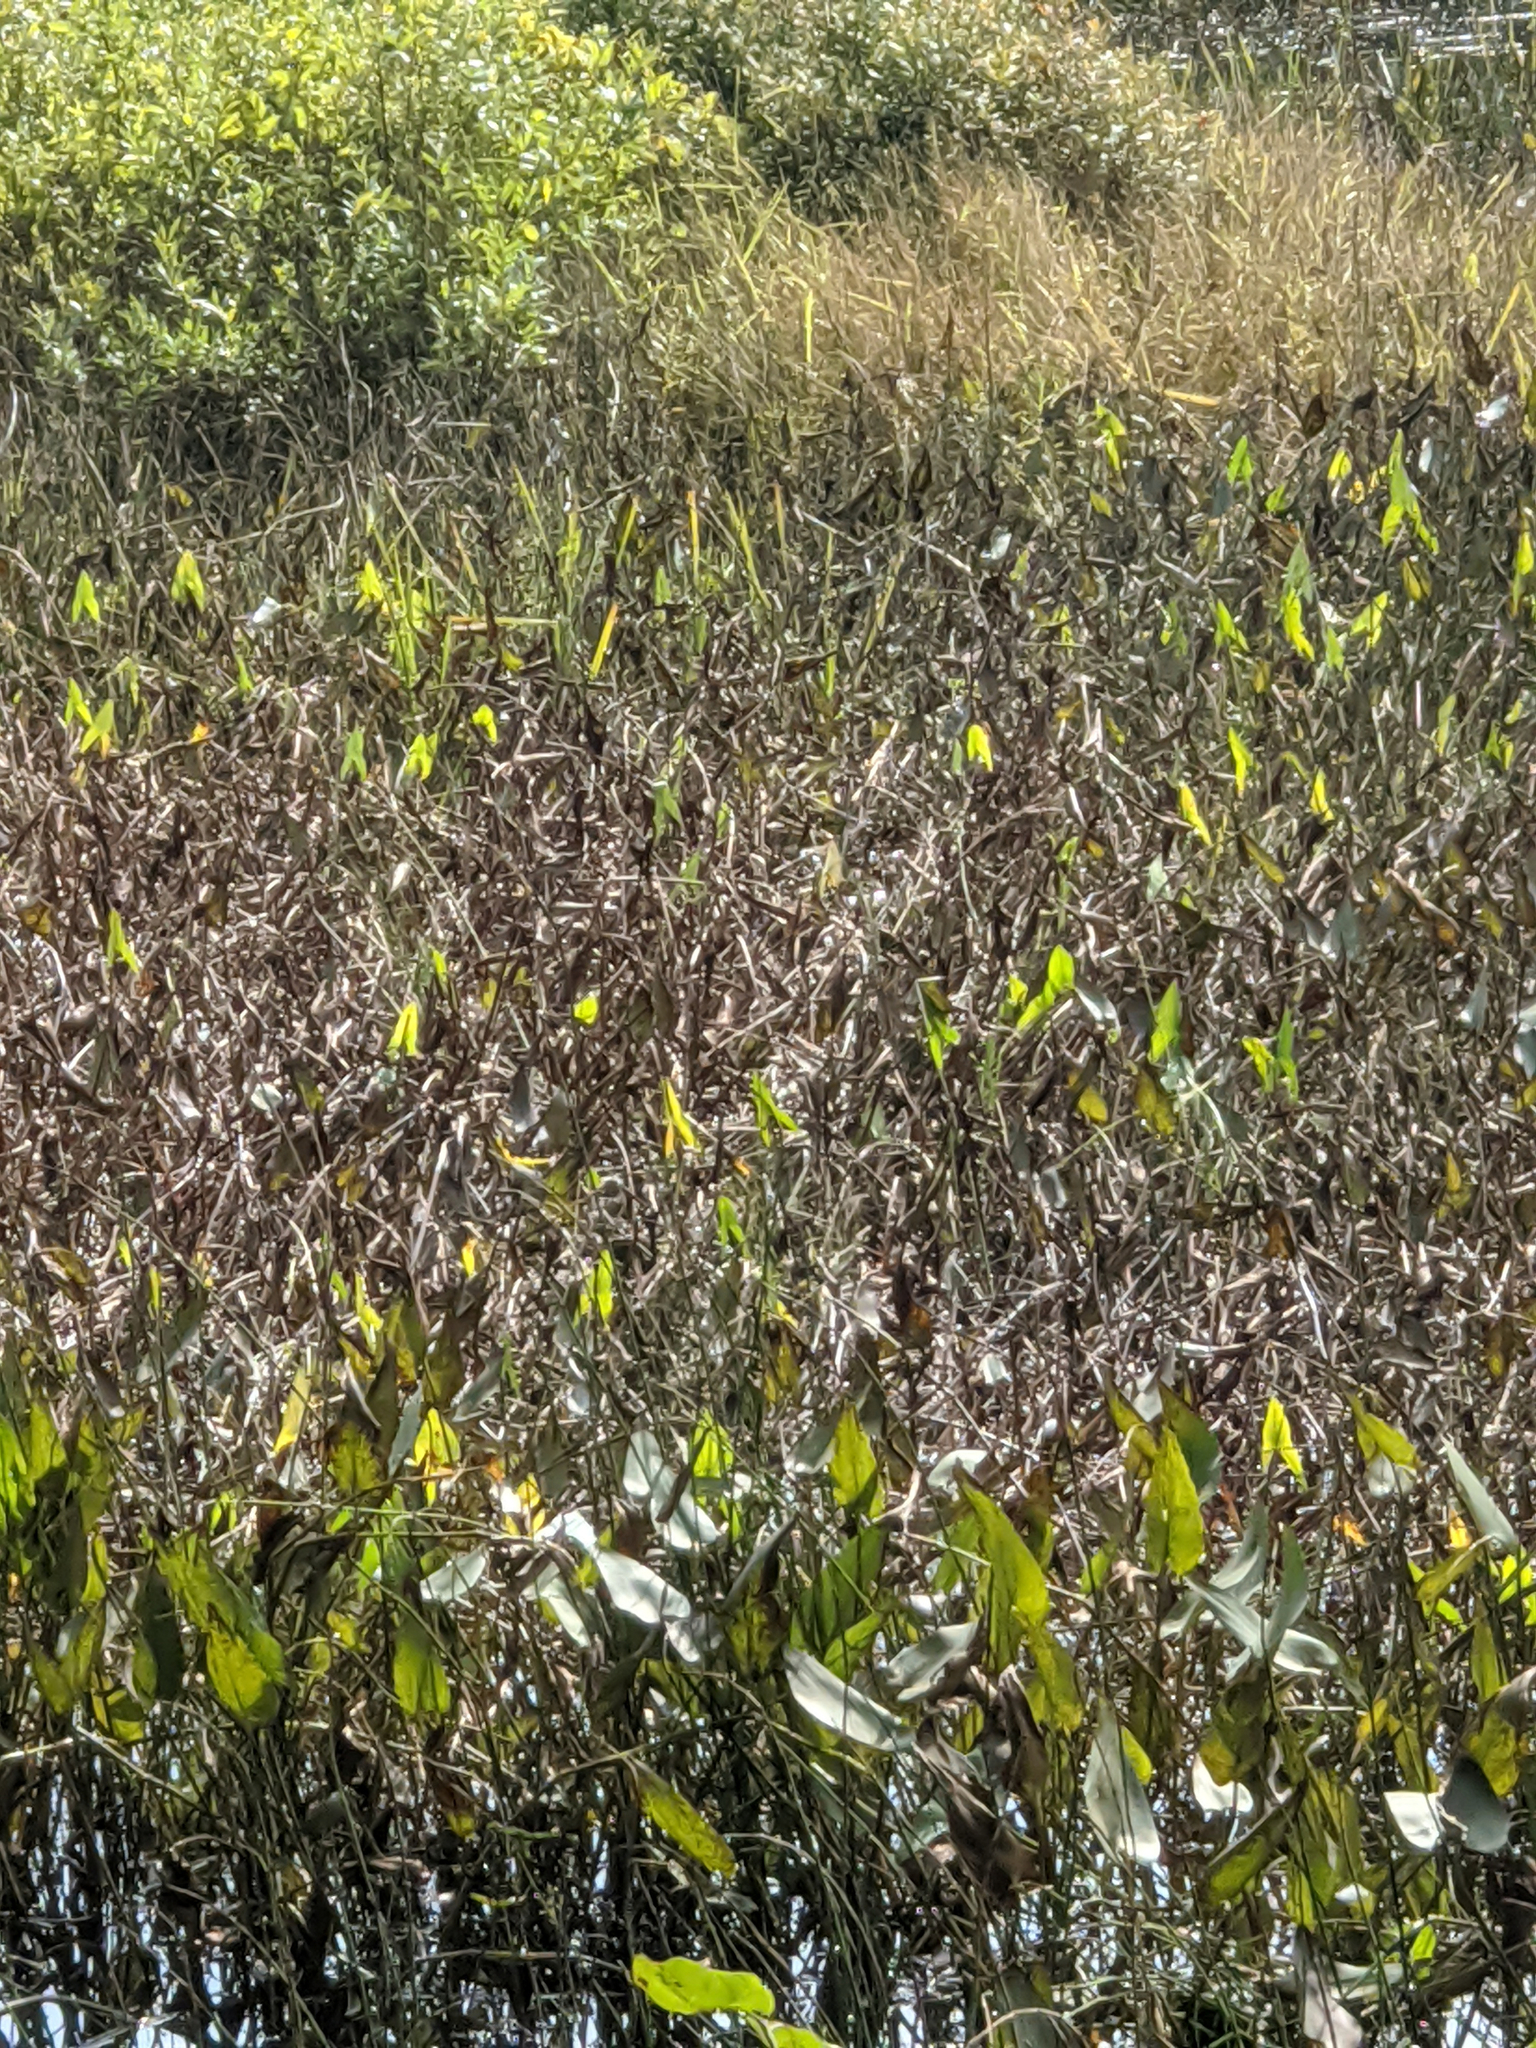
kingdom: Plantae
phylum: Tracheophyta
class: Liliopsida
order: Commelinales
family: Pontederiaceae
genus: Pontederia
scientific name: Pontederia cordata
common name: Pickerelweed
